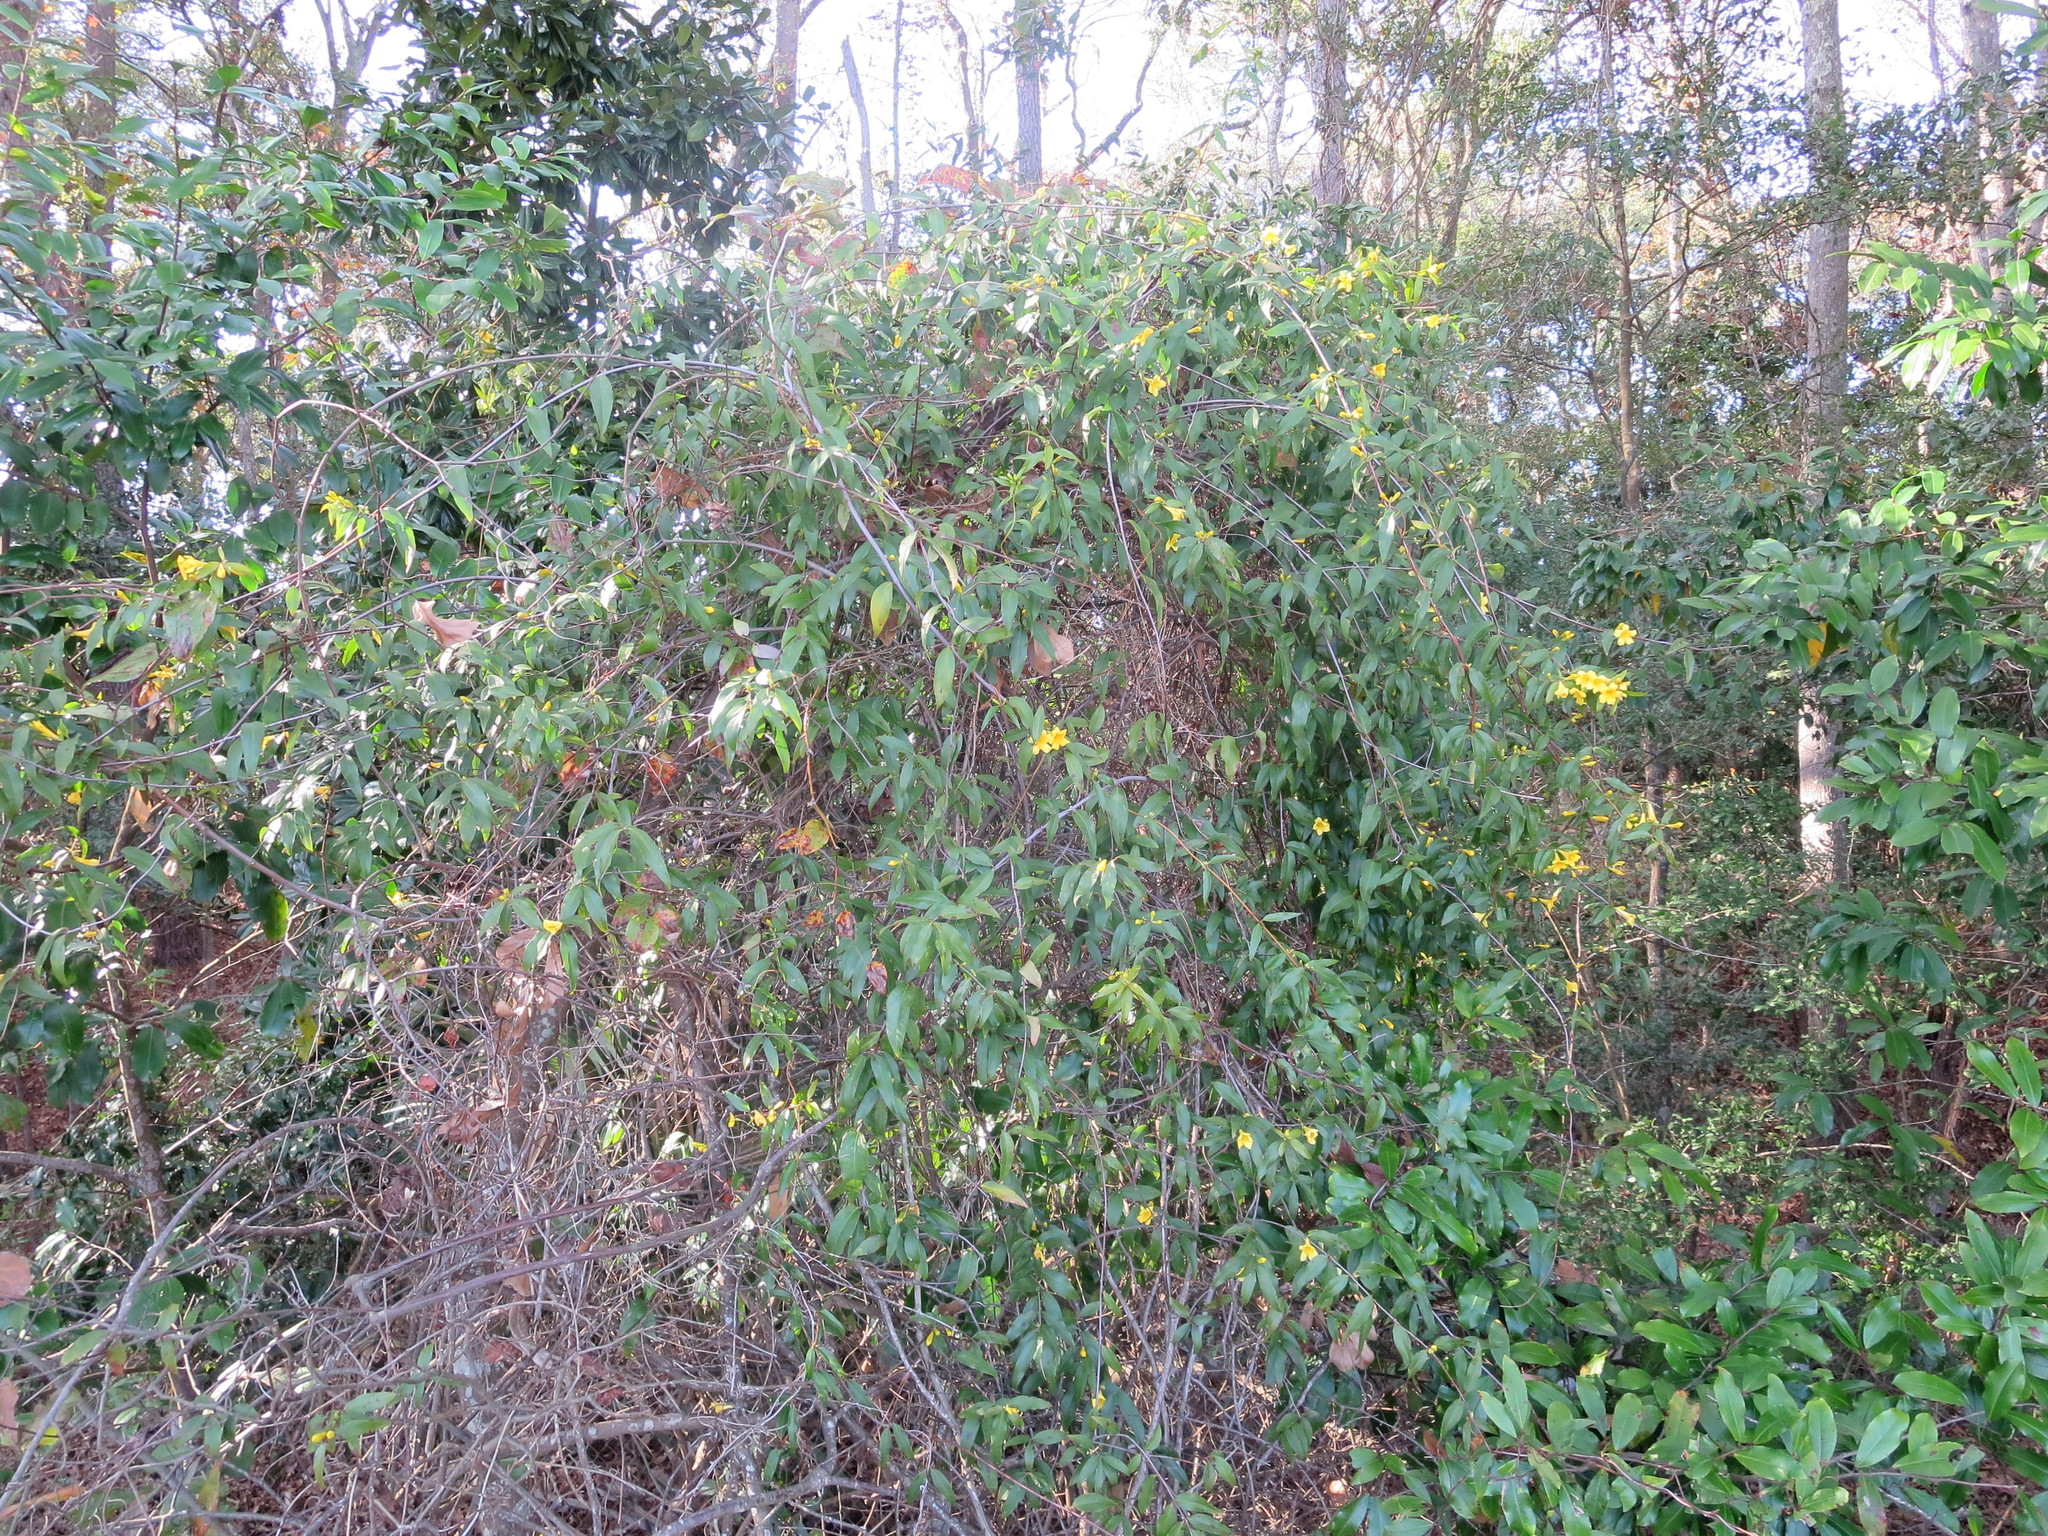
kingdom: Plantae
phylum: Tracheophyta
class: Magnoliopsida
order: Gentianales
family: Gelsemiaceae
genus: Gelsemium
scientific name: Gelsemium sempervirens
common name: Carolina-jasmine
